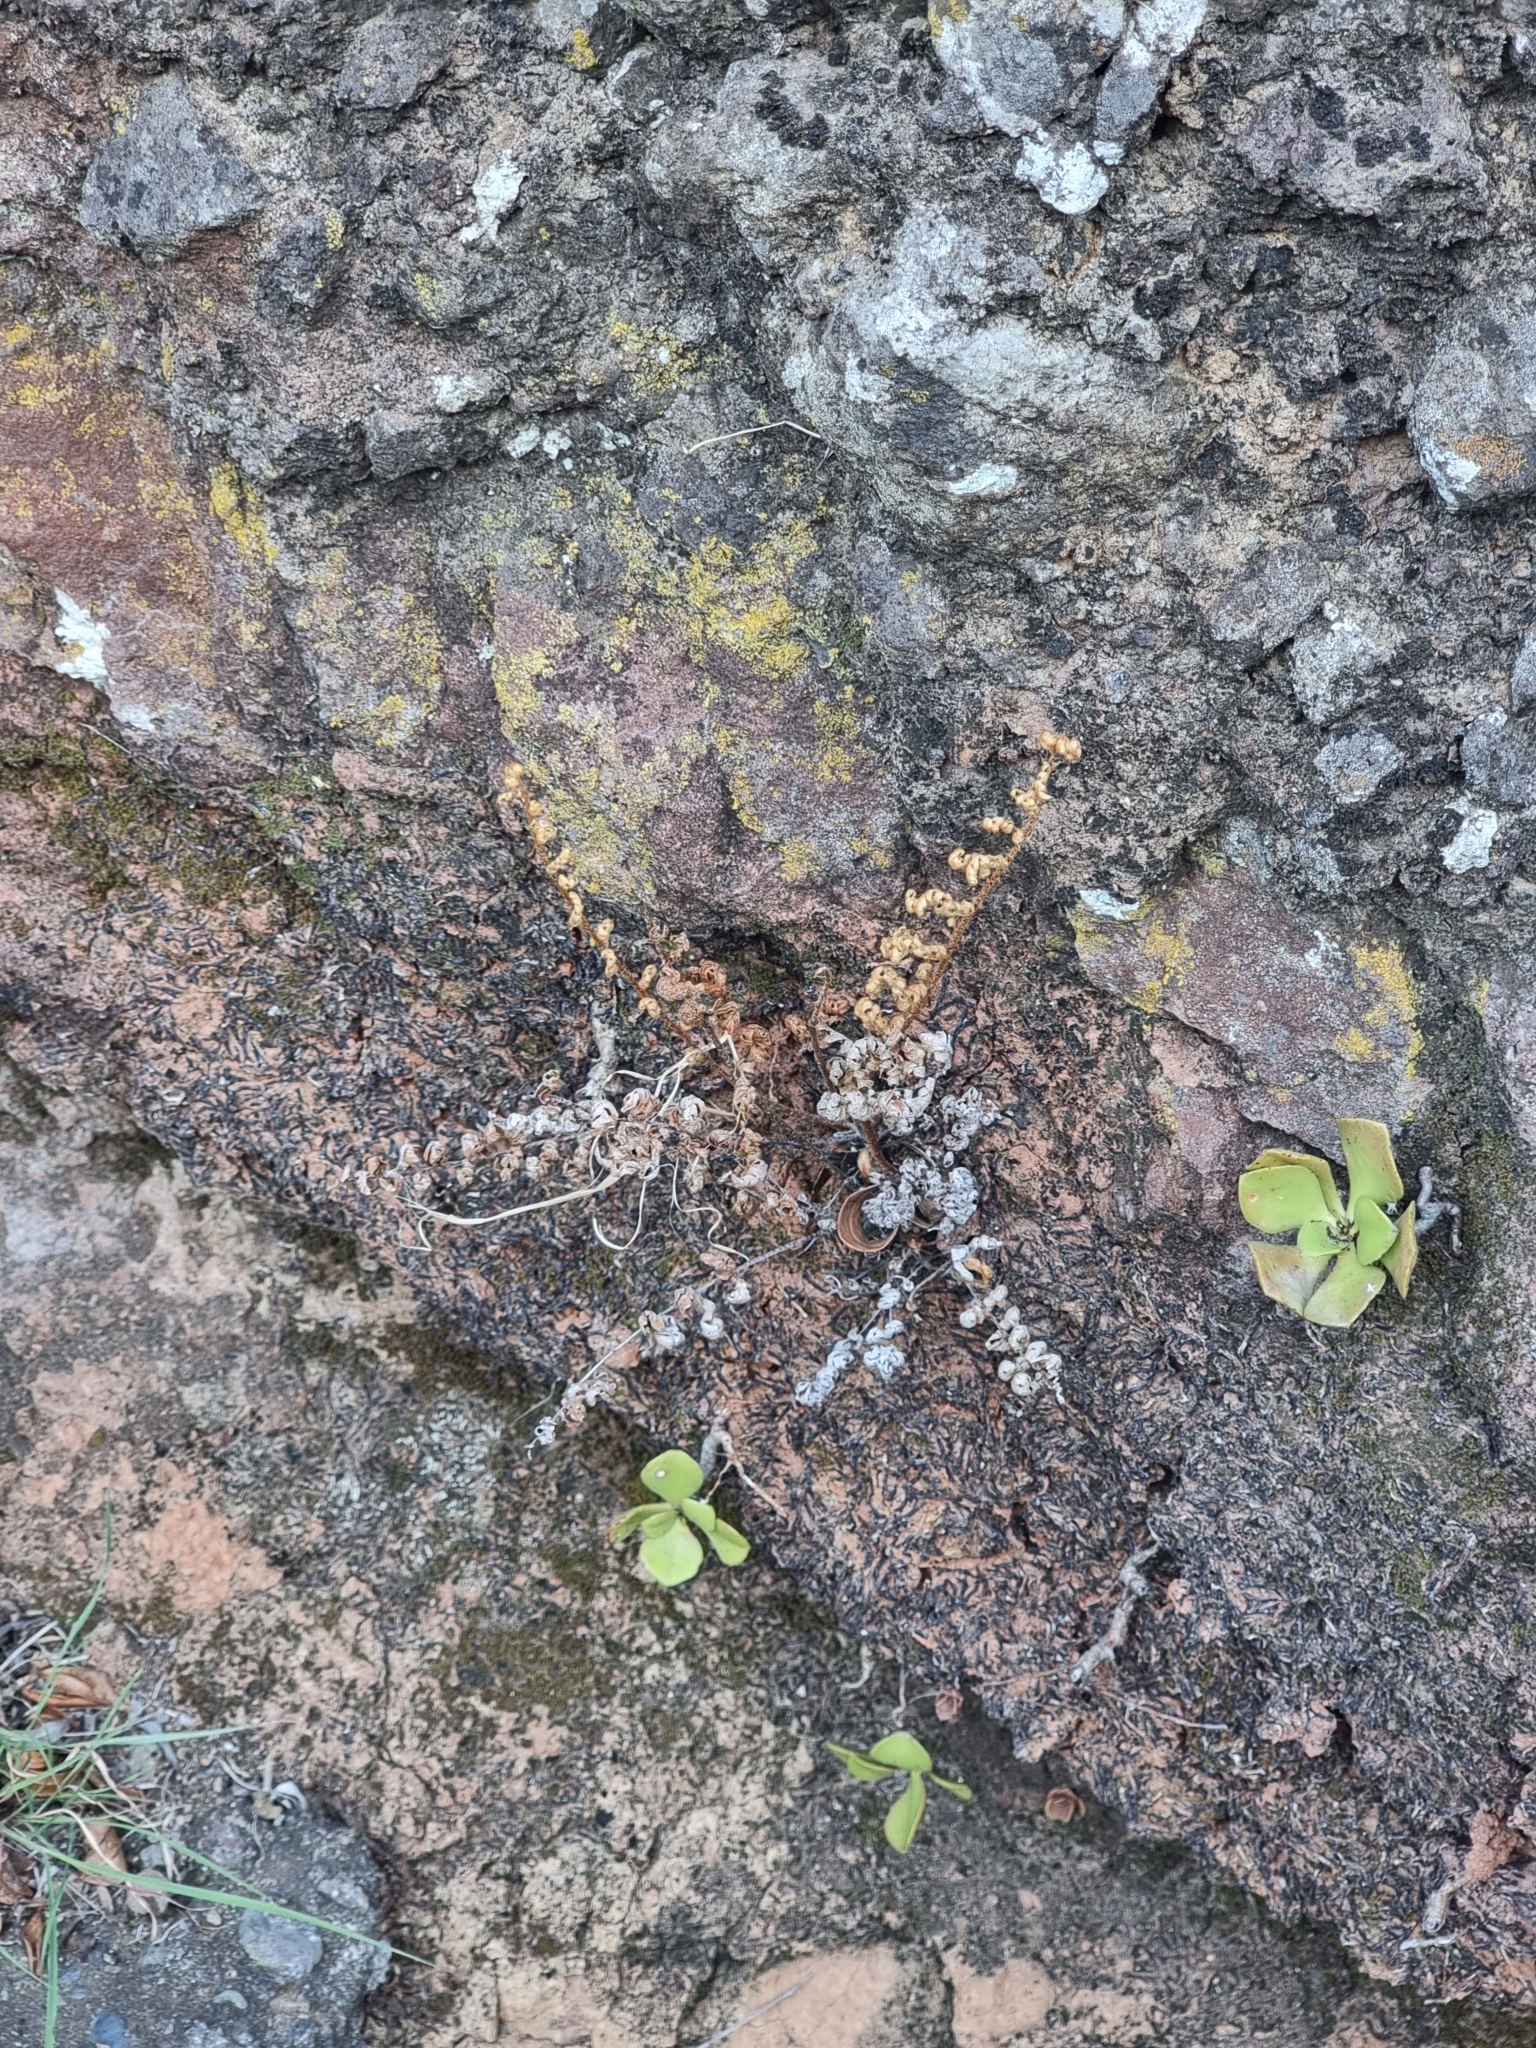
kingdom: Plantae
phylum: Tracheophyta
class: Polypodiopsida
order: Polypodiales
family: Pteridaceae
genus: Paragymnopteris
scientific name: Paragymnopteris marantae
